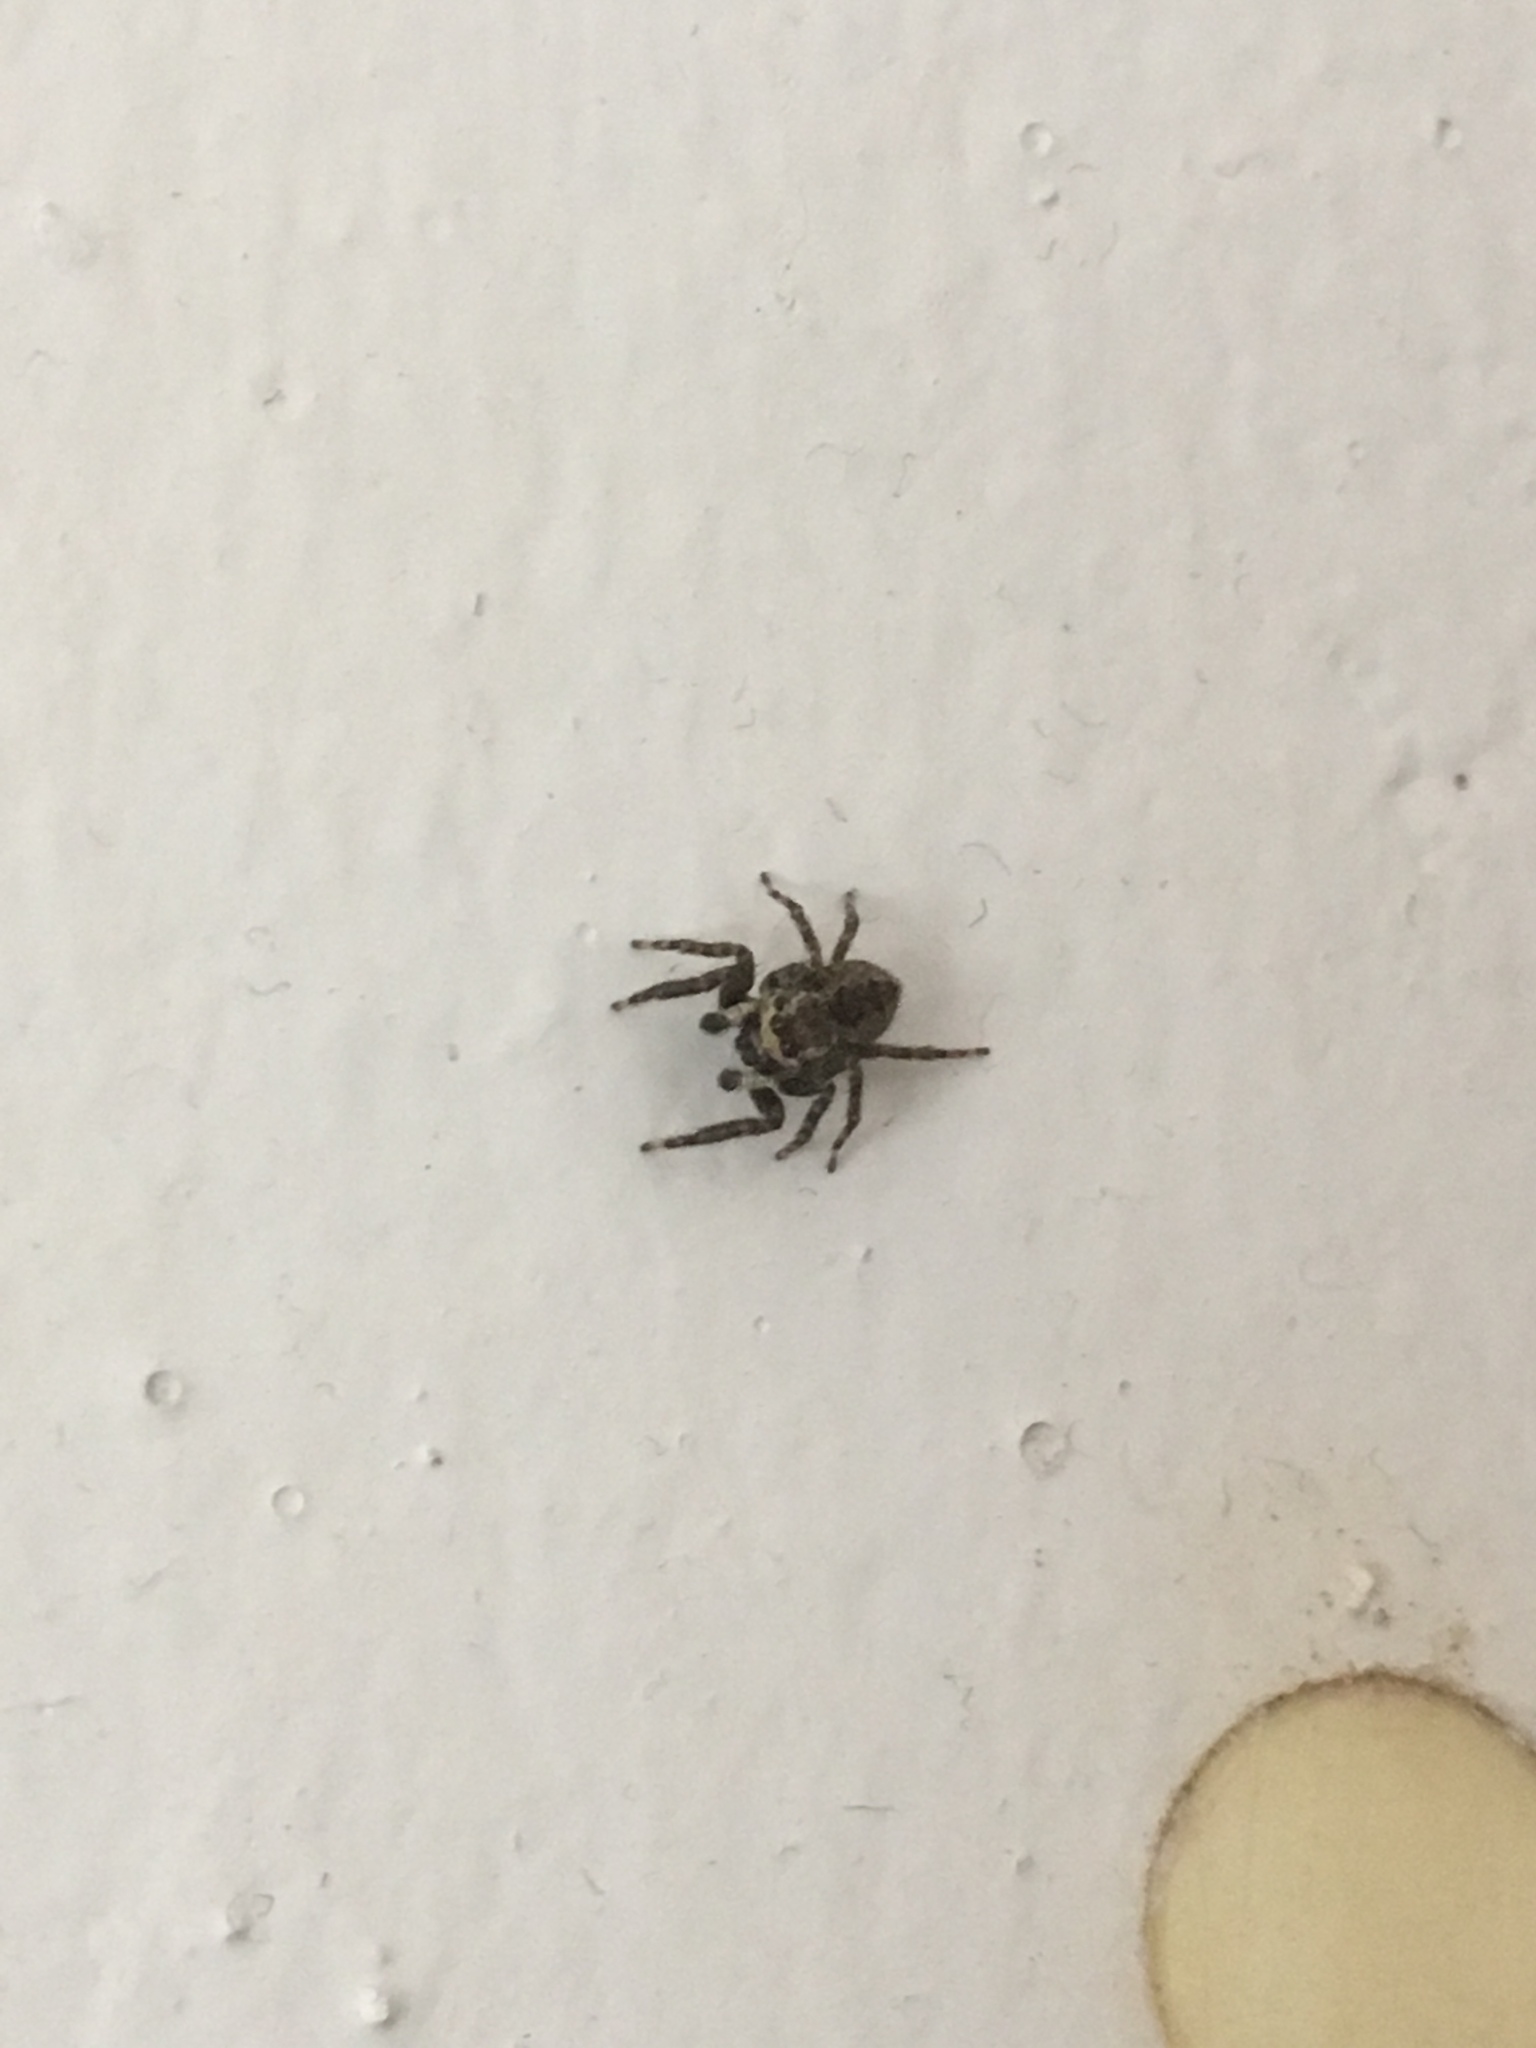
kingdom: Animalia
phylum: Arthropoda
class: Arachnida
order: Araneae
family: Salticidae
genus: Menemerus
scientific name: Menemerus bivittatus
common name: Gray wall jumper
